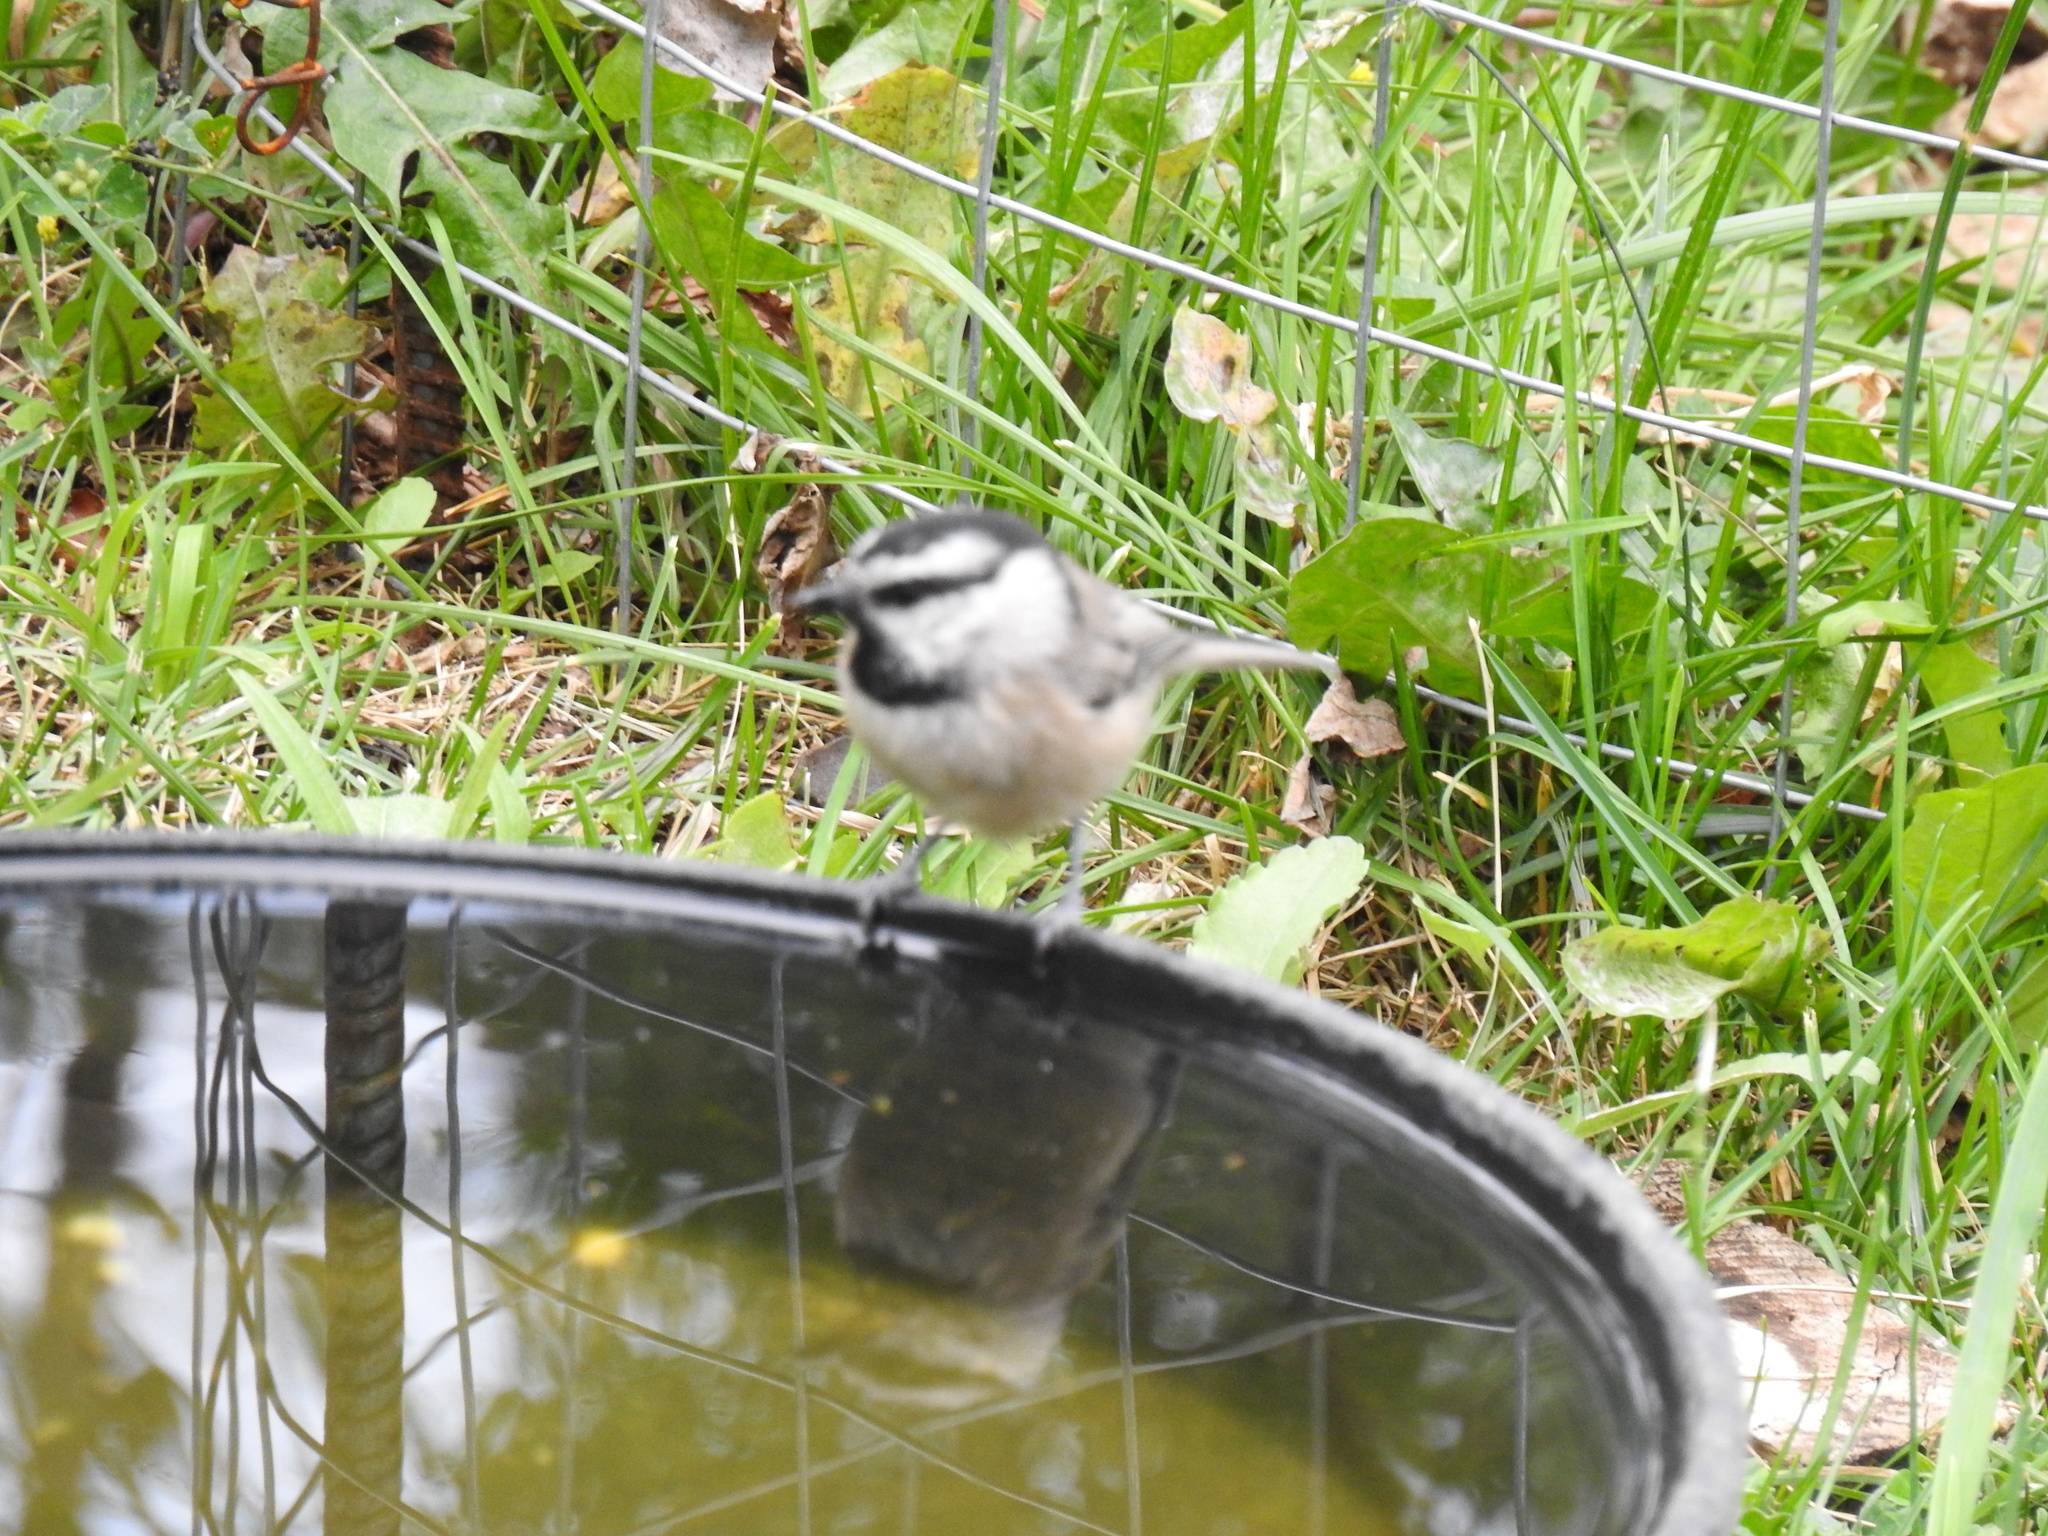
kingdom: Animalia
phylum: Chordata
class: Aves
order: Passeriformes
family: Paridae
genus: Poecile
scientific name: Poecile gambeli
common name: Mountain chickadee
